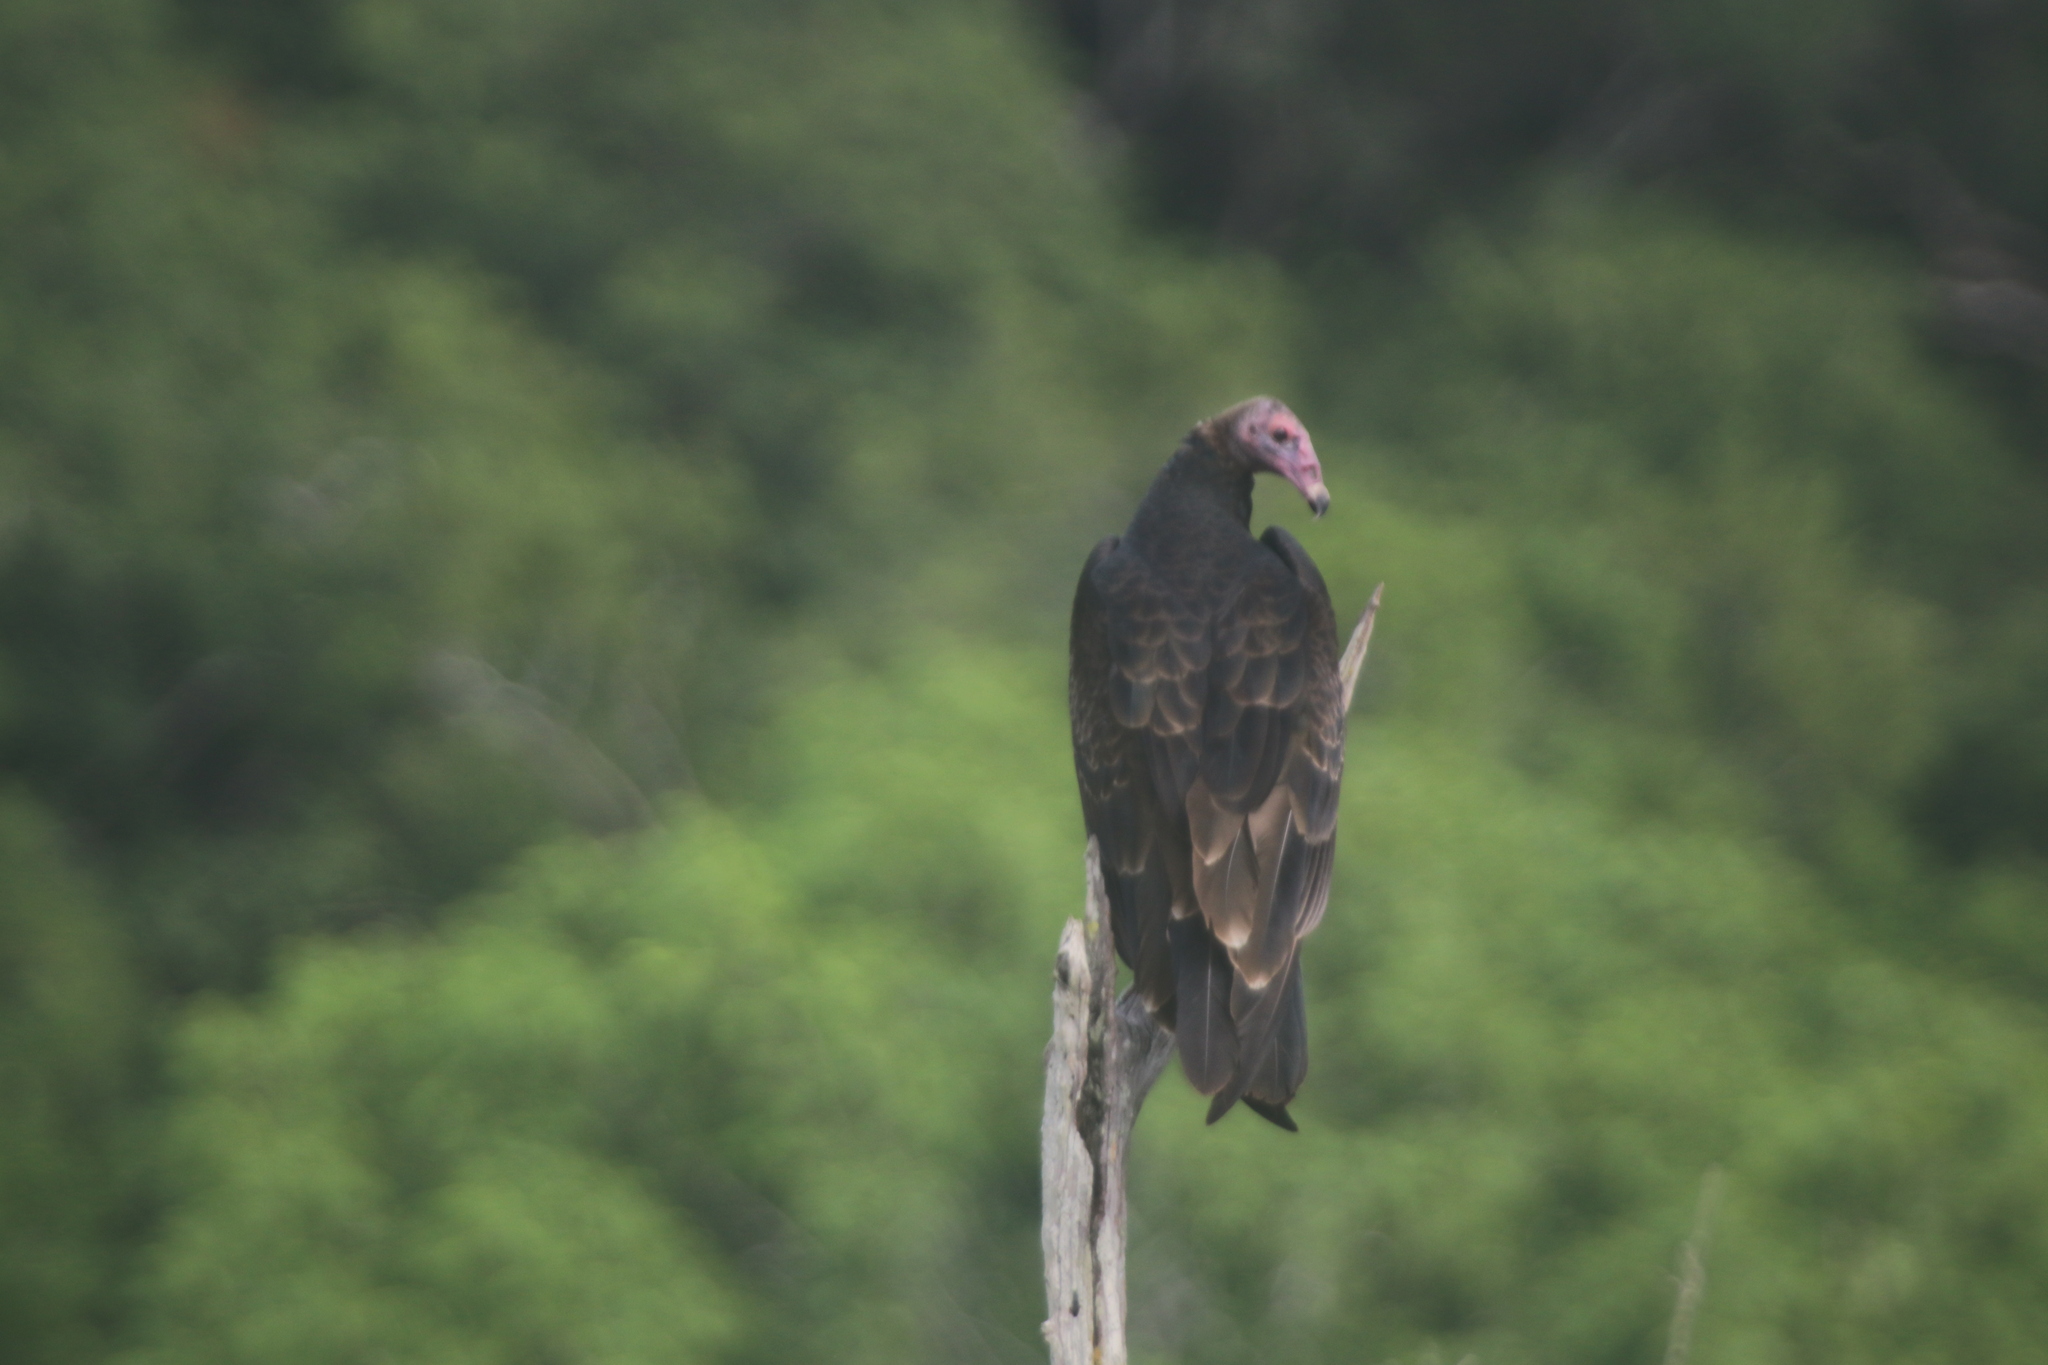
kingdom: Animalia
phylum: Chordata
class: Aves
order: Accipitriformes
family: Cathartidae
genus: Cathartes
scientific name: Cathartes aura
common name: Turkey vulture
